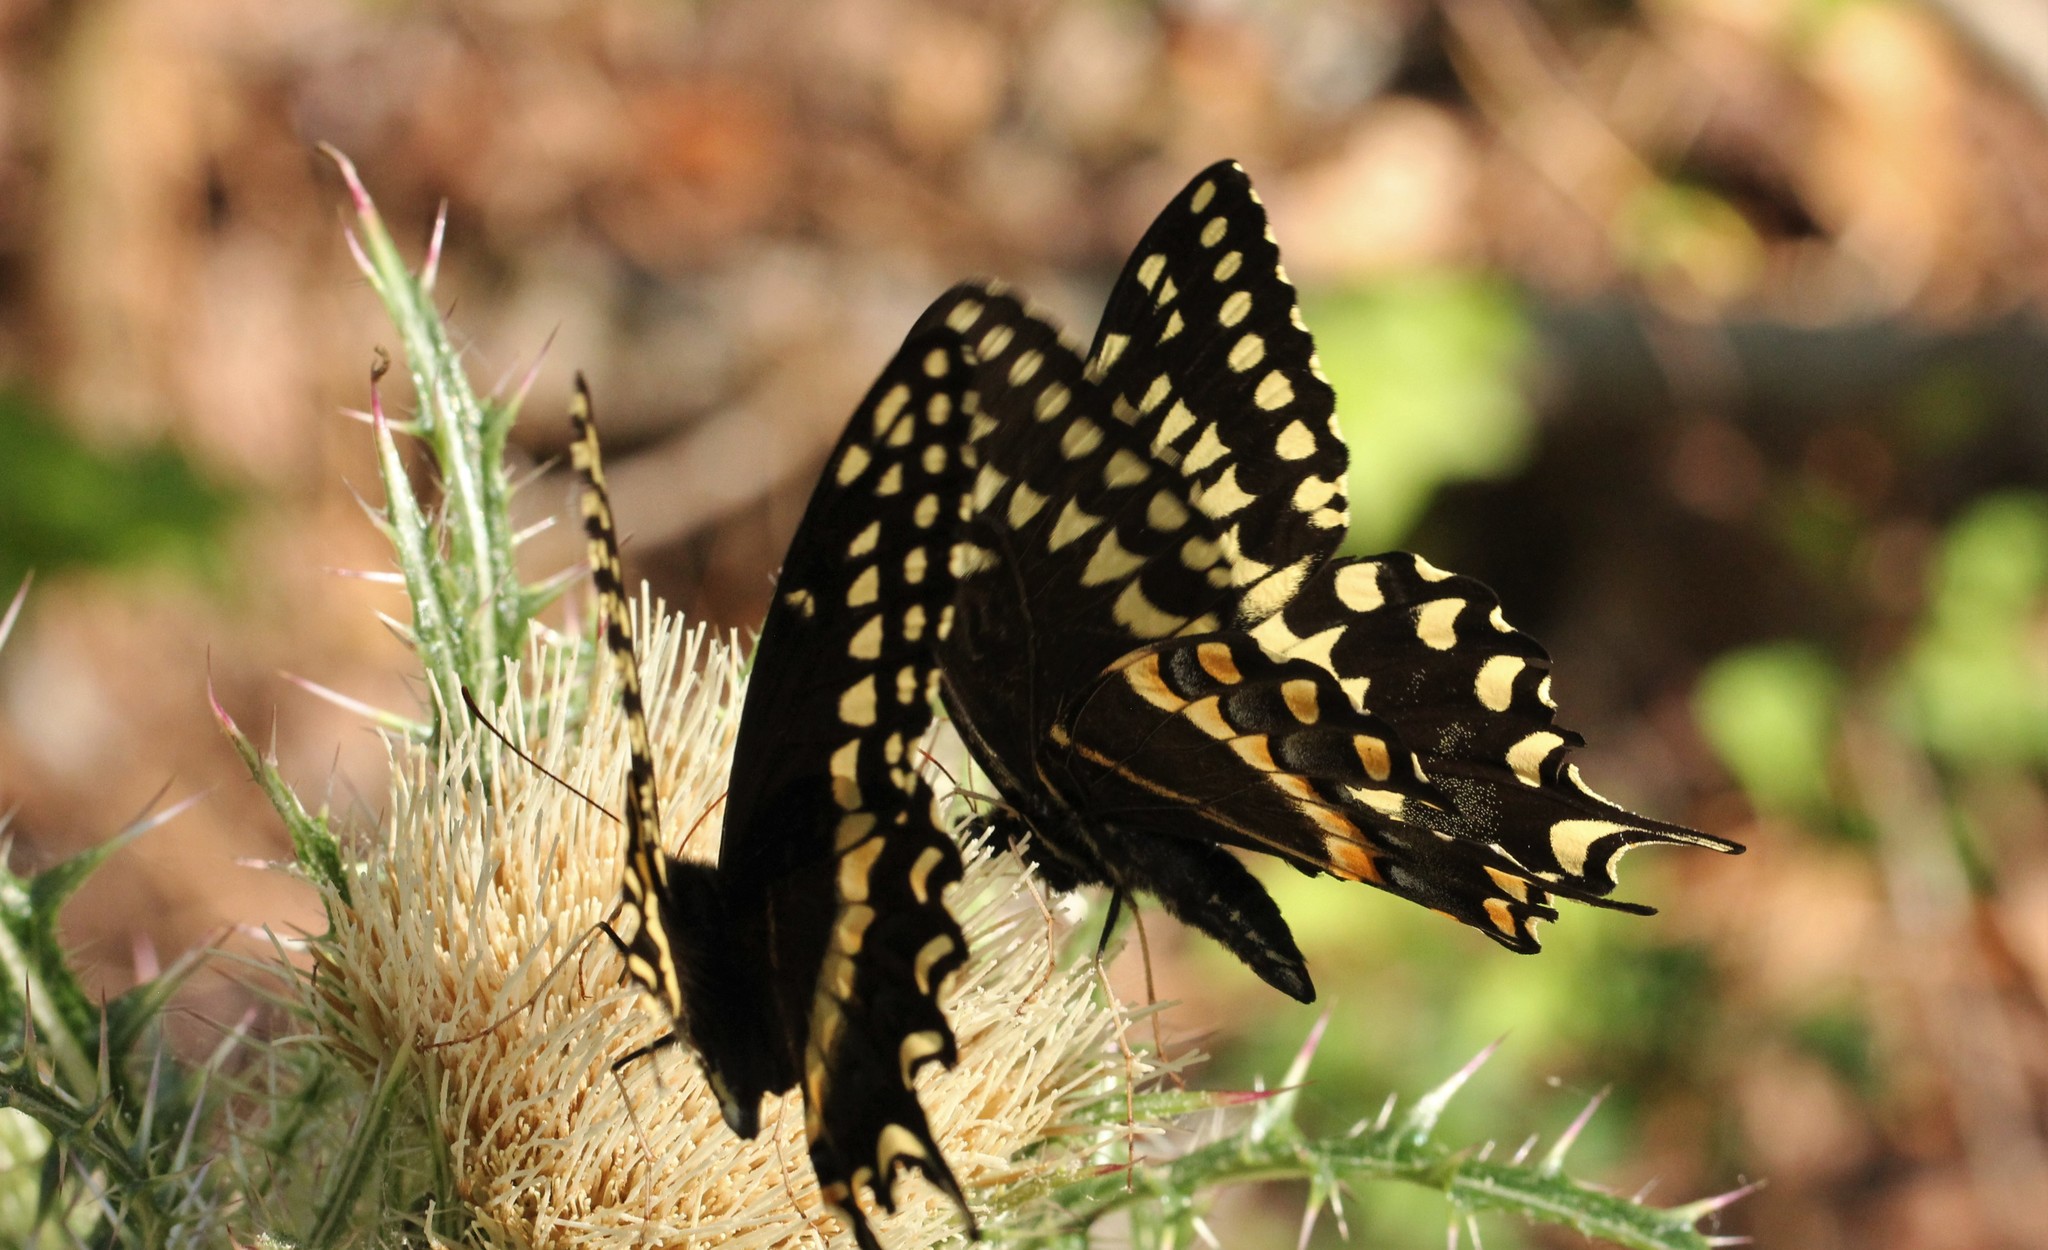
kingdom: Animalia
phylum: Arthropoda
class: Insecta
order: Lepidoptera
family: Papilionidae
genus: Papilio
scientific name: Papilio palamedes
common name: Palamedes swallowtail
